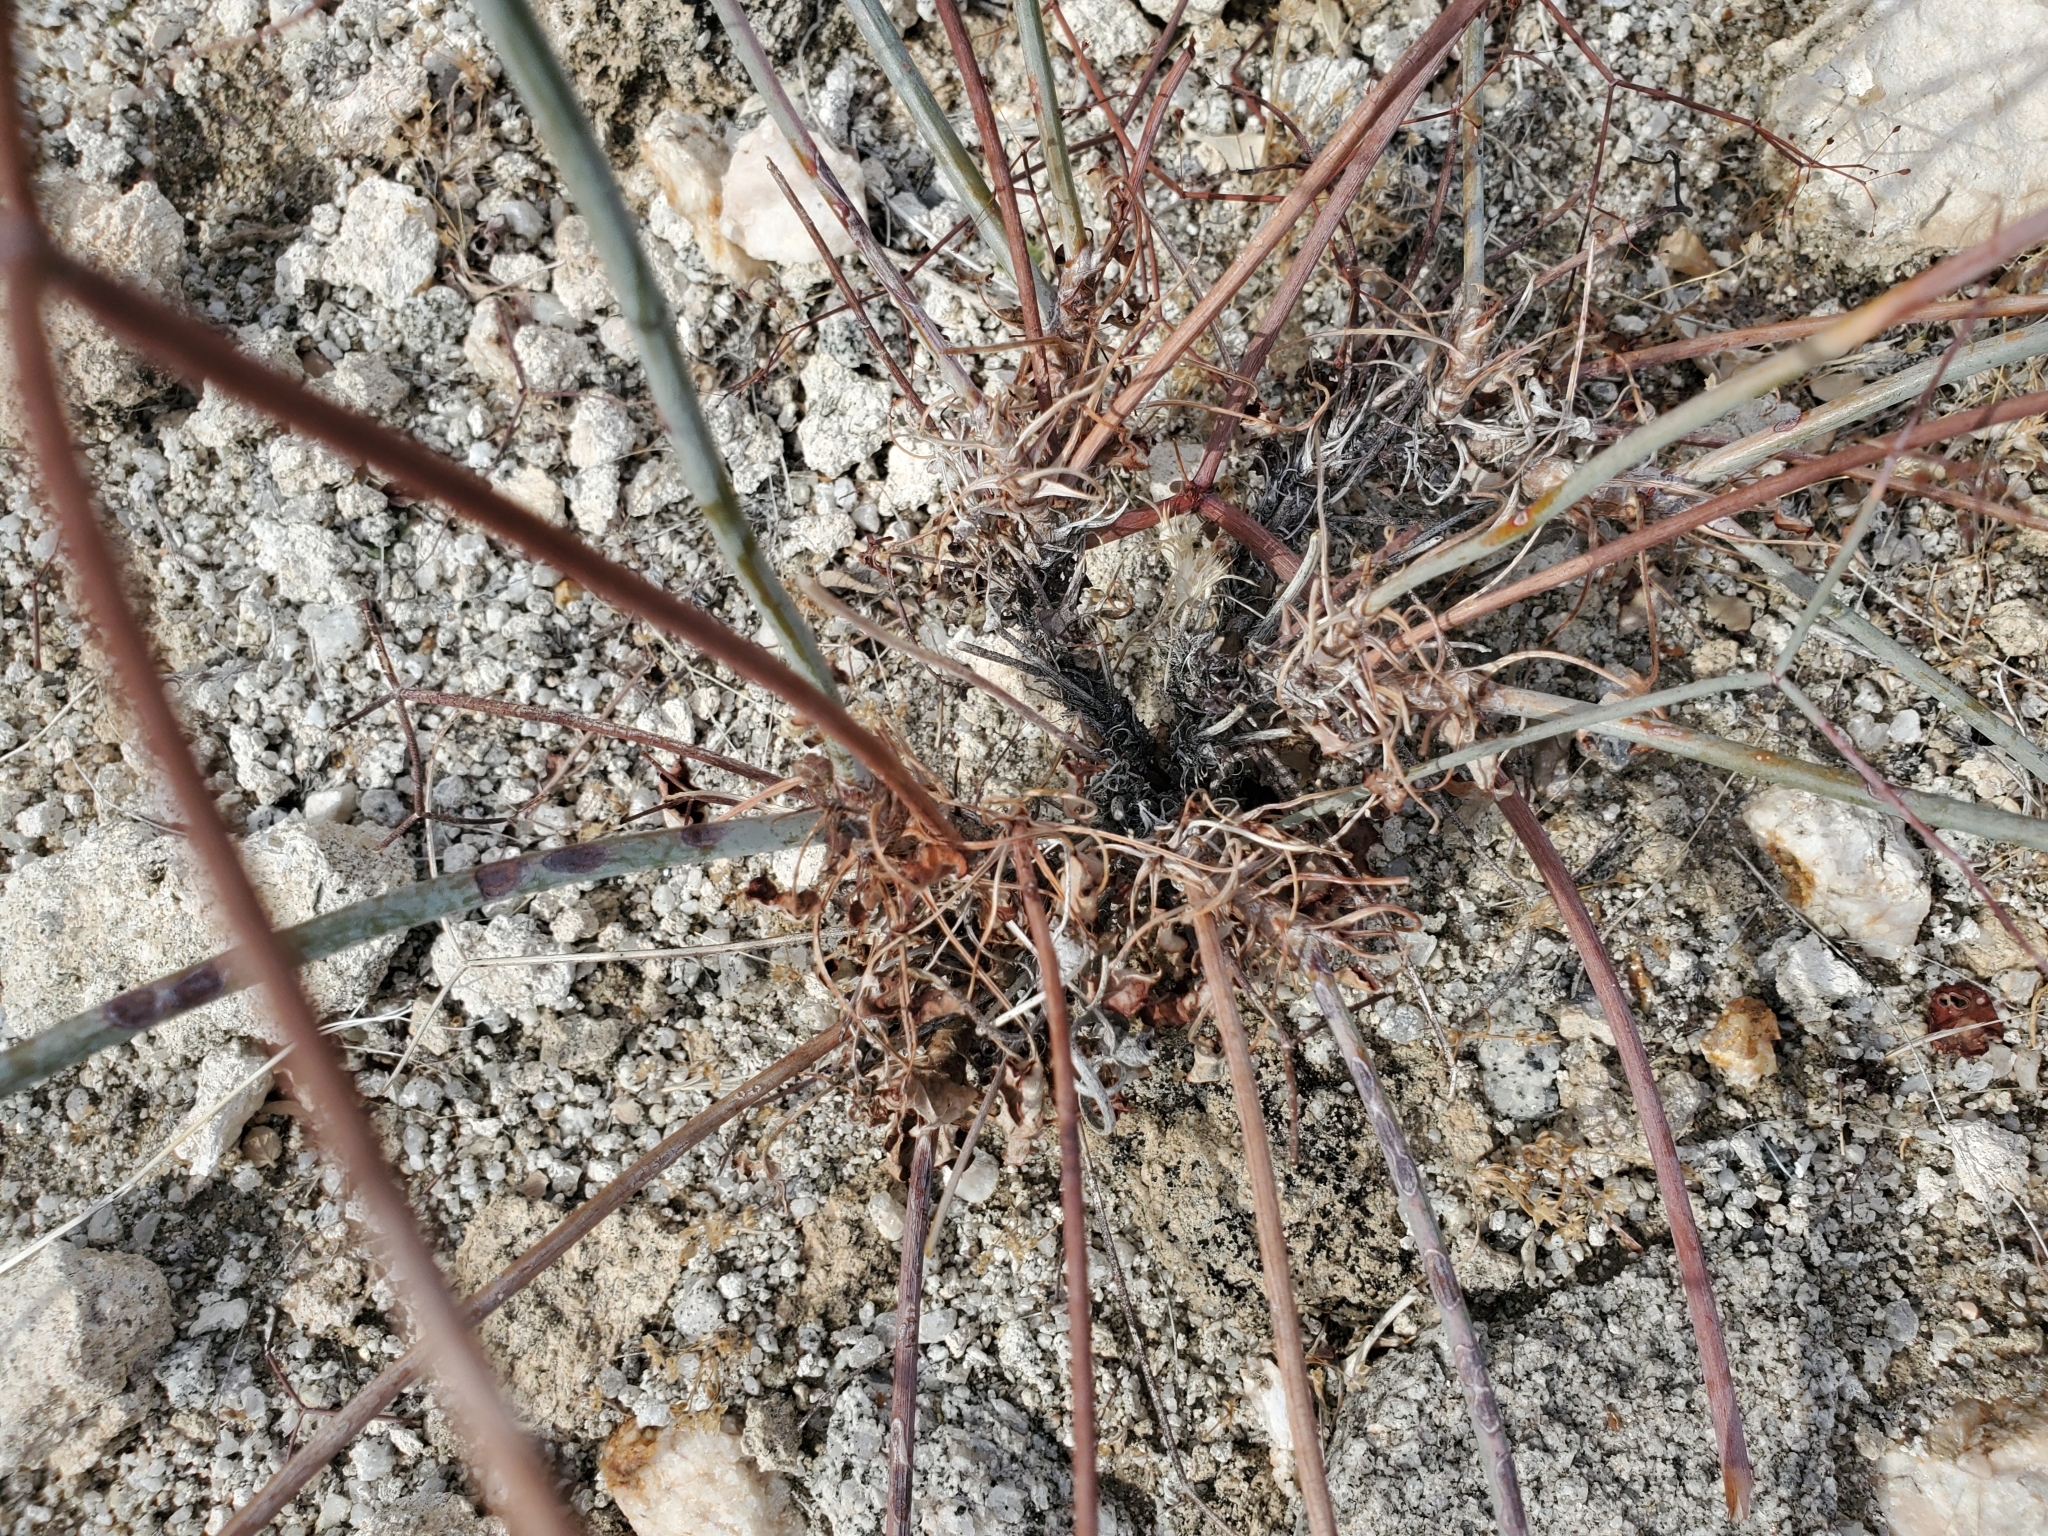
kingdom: Plantae
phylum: Tracheophyta
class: Magnoliopsida
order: Caryophyllales
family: Polygonaceae
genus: Eriogonum
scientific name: Eriogonum inflatum
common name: Desert trumpet
